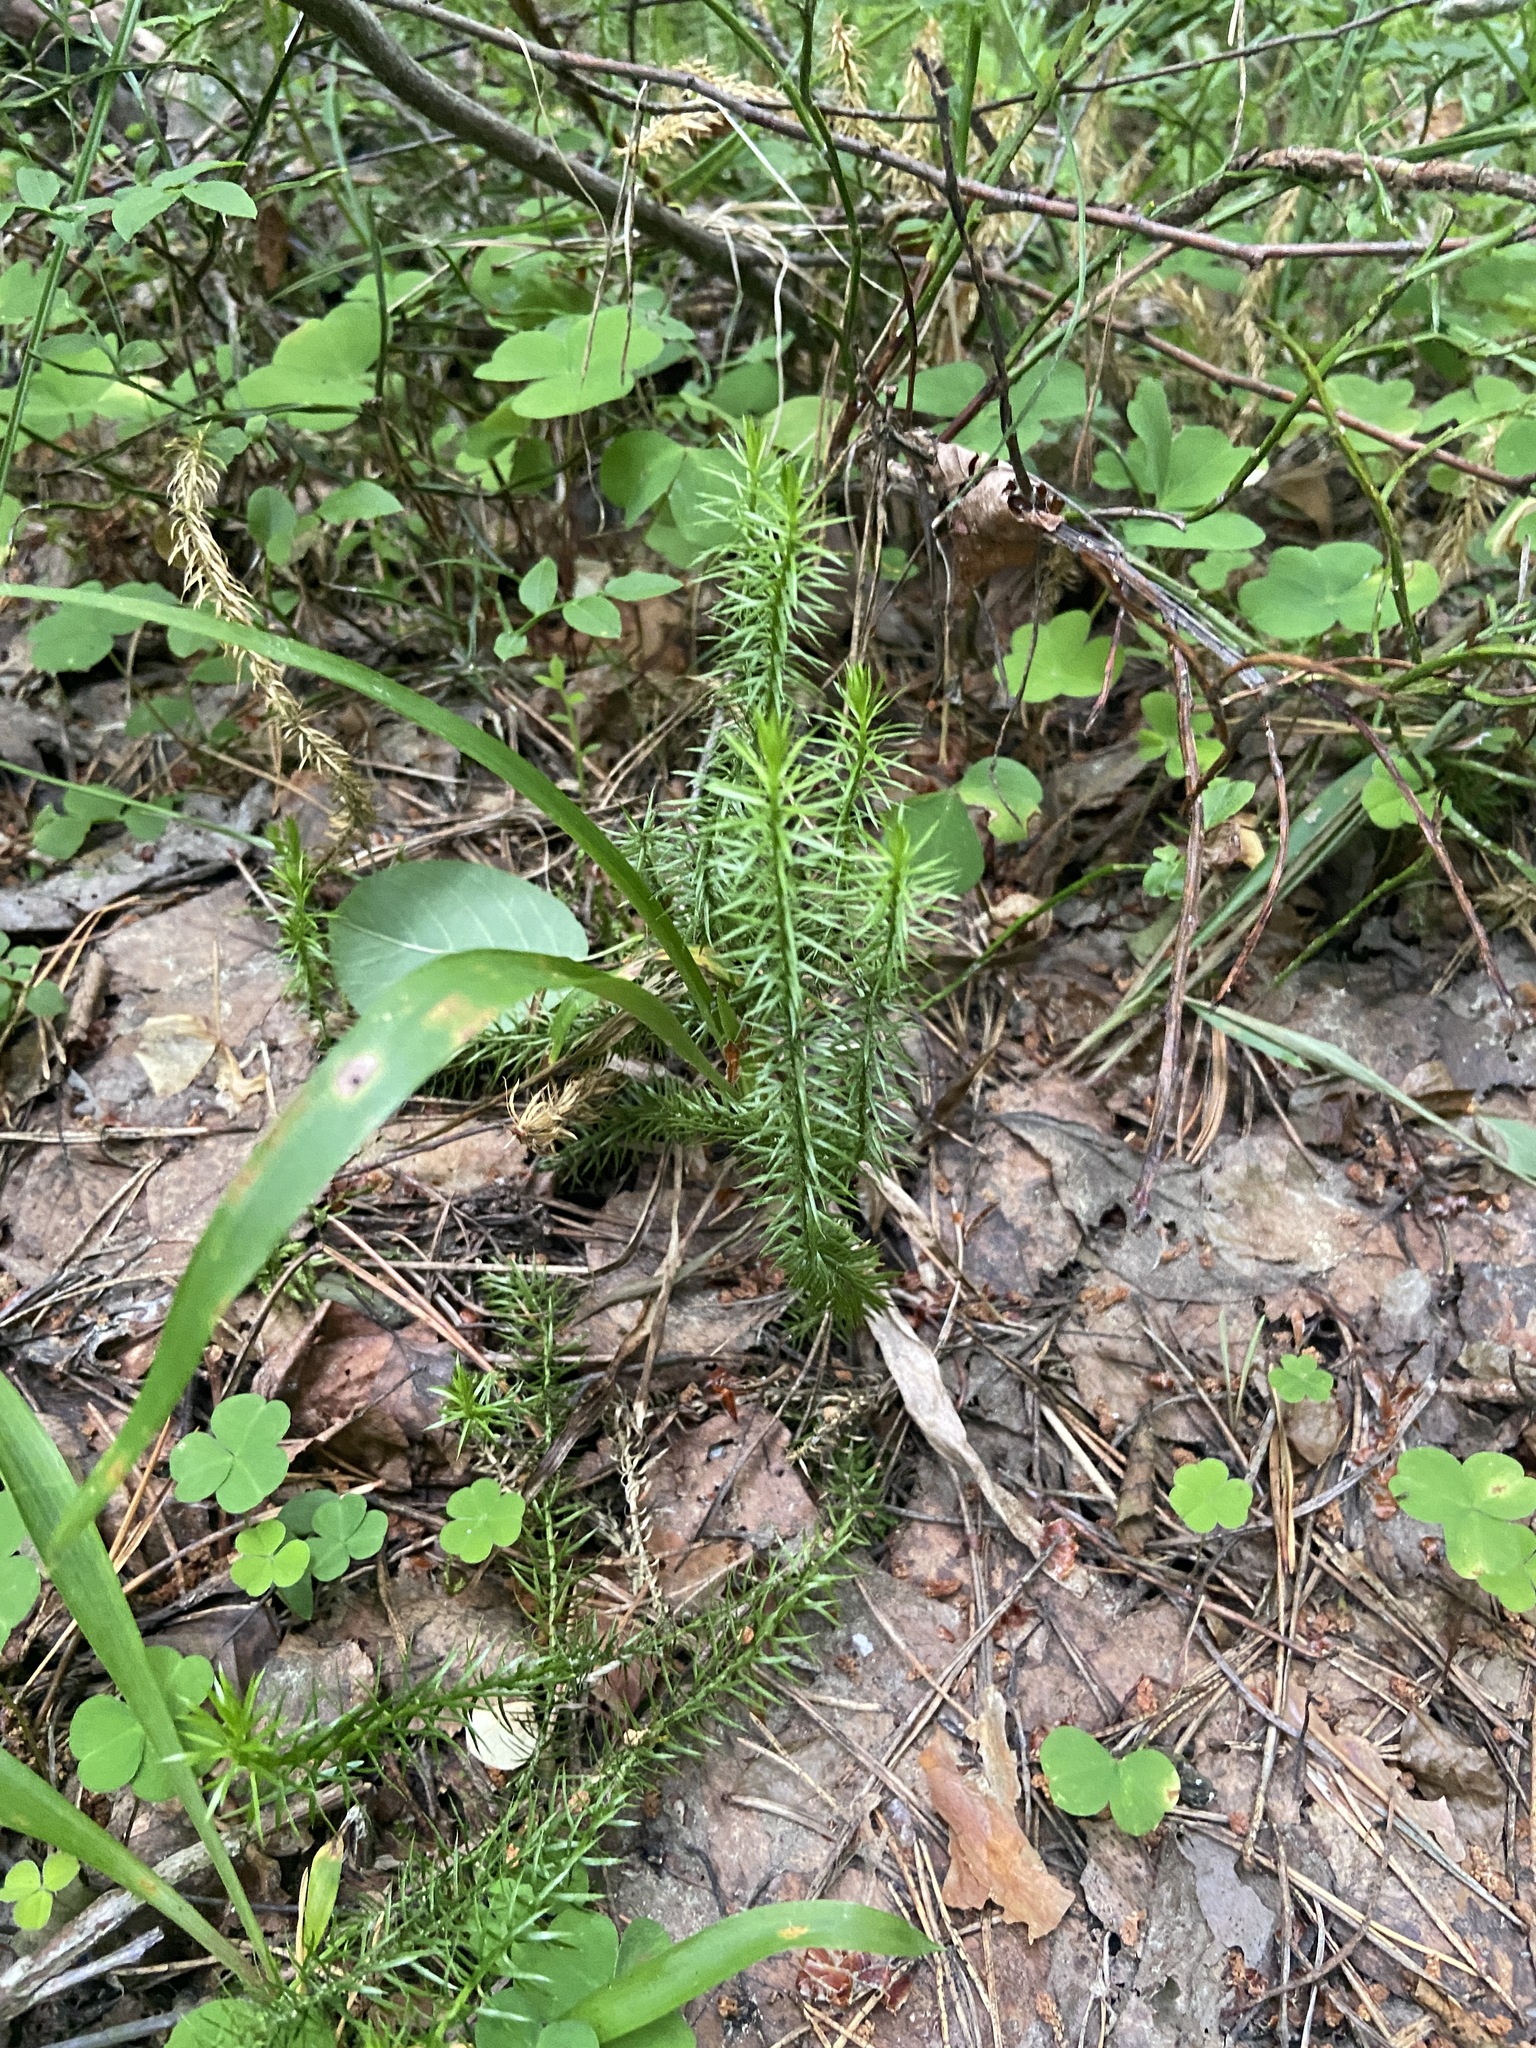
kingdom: Plantae
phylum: Tracheophyta
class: Lycopodiopsida
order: Lycopodiales
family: Lycopodiaceae
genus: Spinulum
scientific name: Spinulum annotinum
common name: Interrupted club-moss
